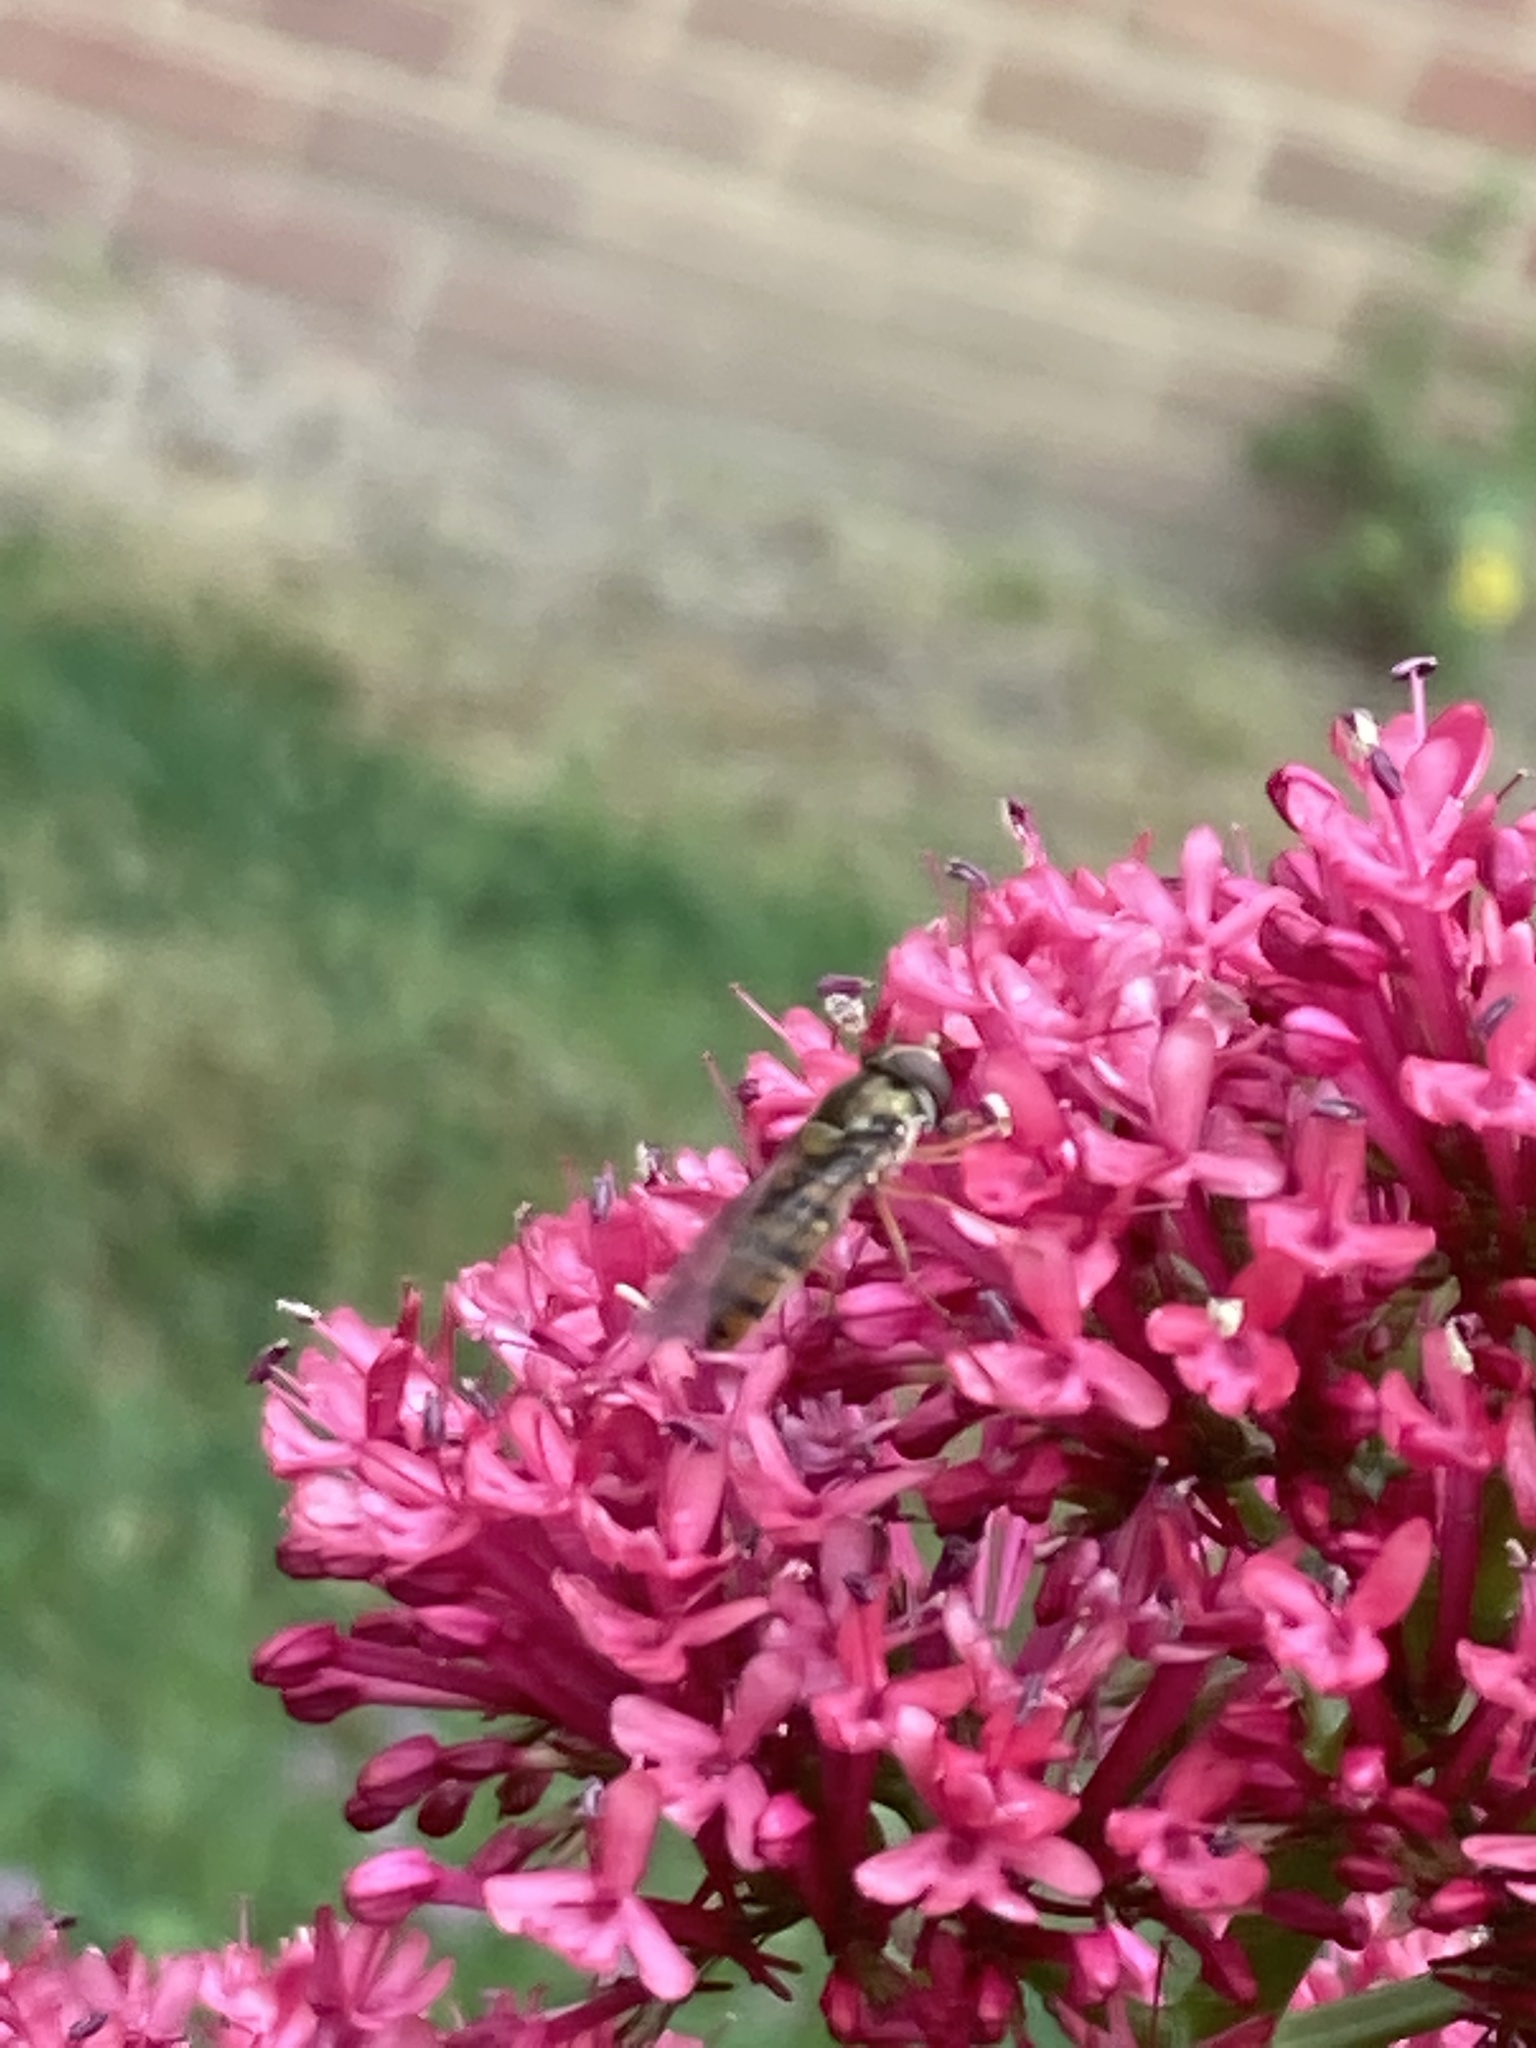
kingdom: Animalia
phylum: Arthropoda
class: Insecta
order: Diptera
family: Syrphidae
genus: Episyrphus
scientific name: Episyrphus balteatus
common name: Marmalade hoverfly
